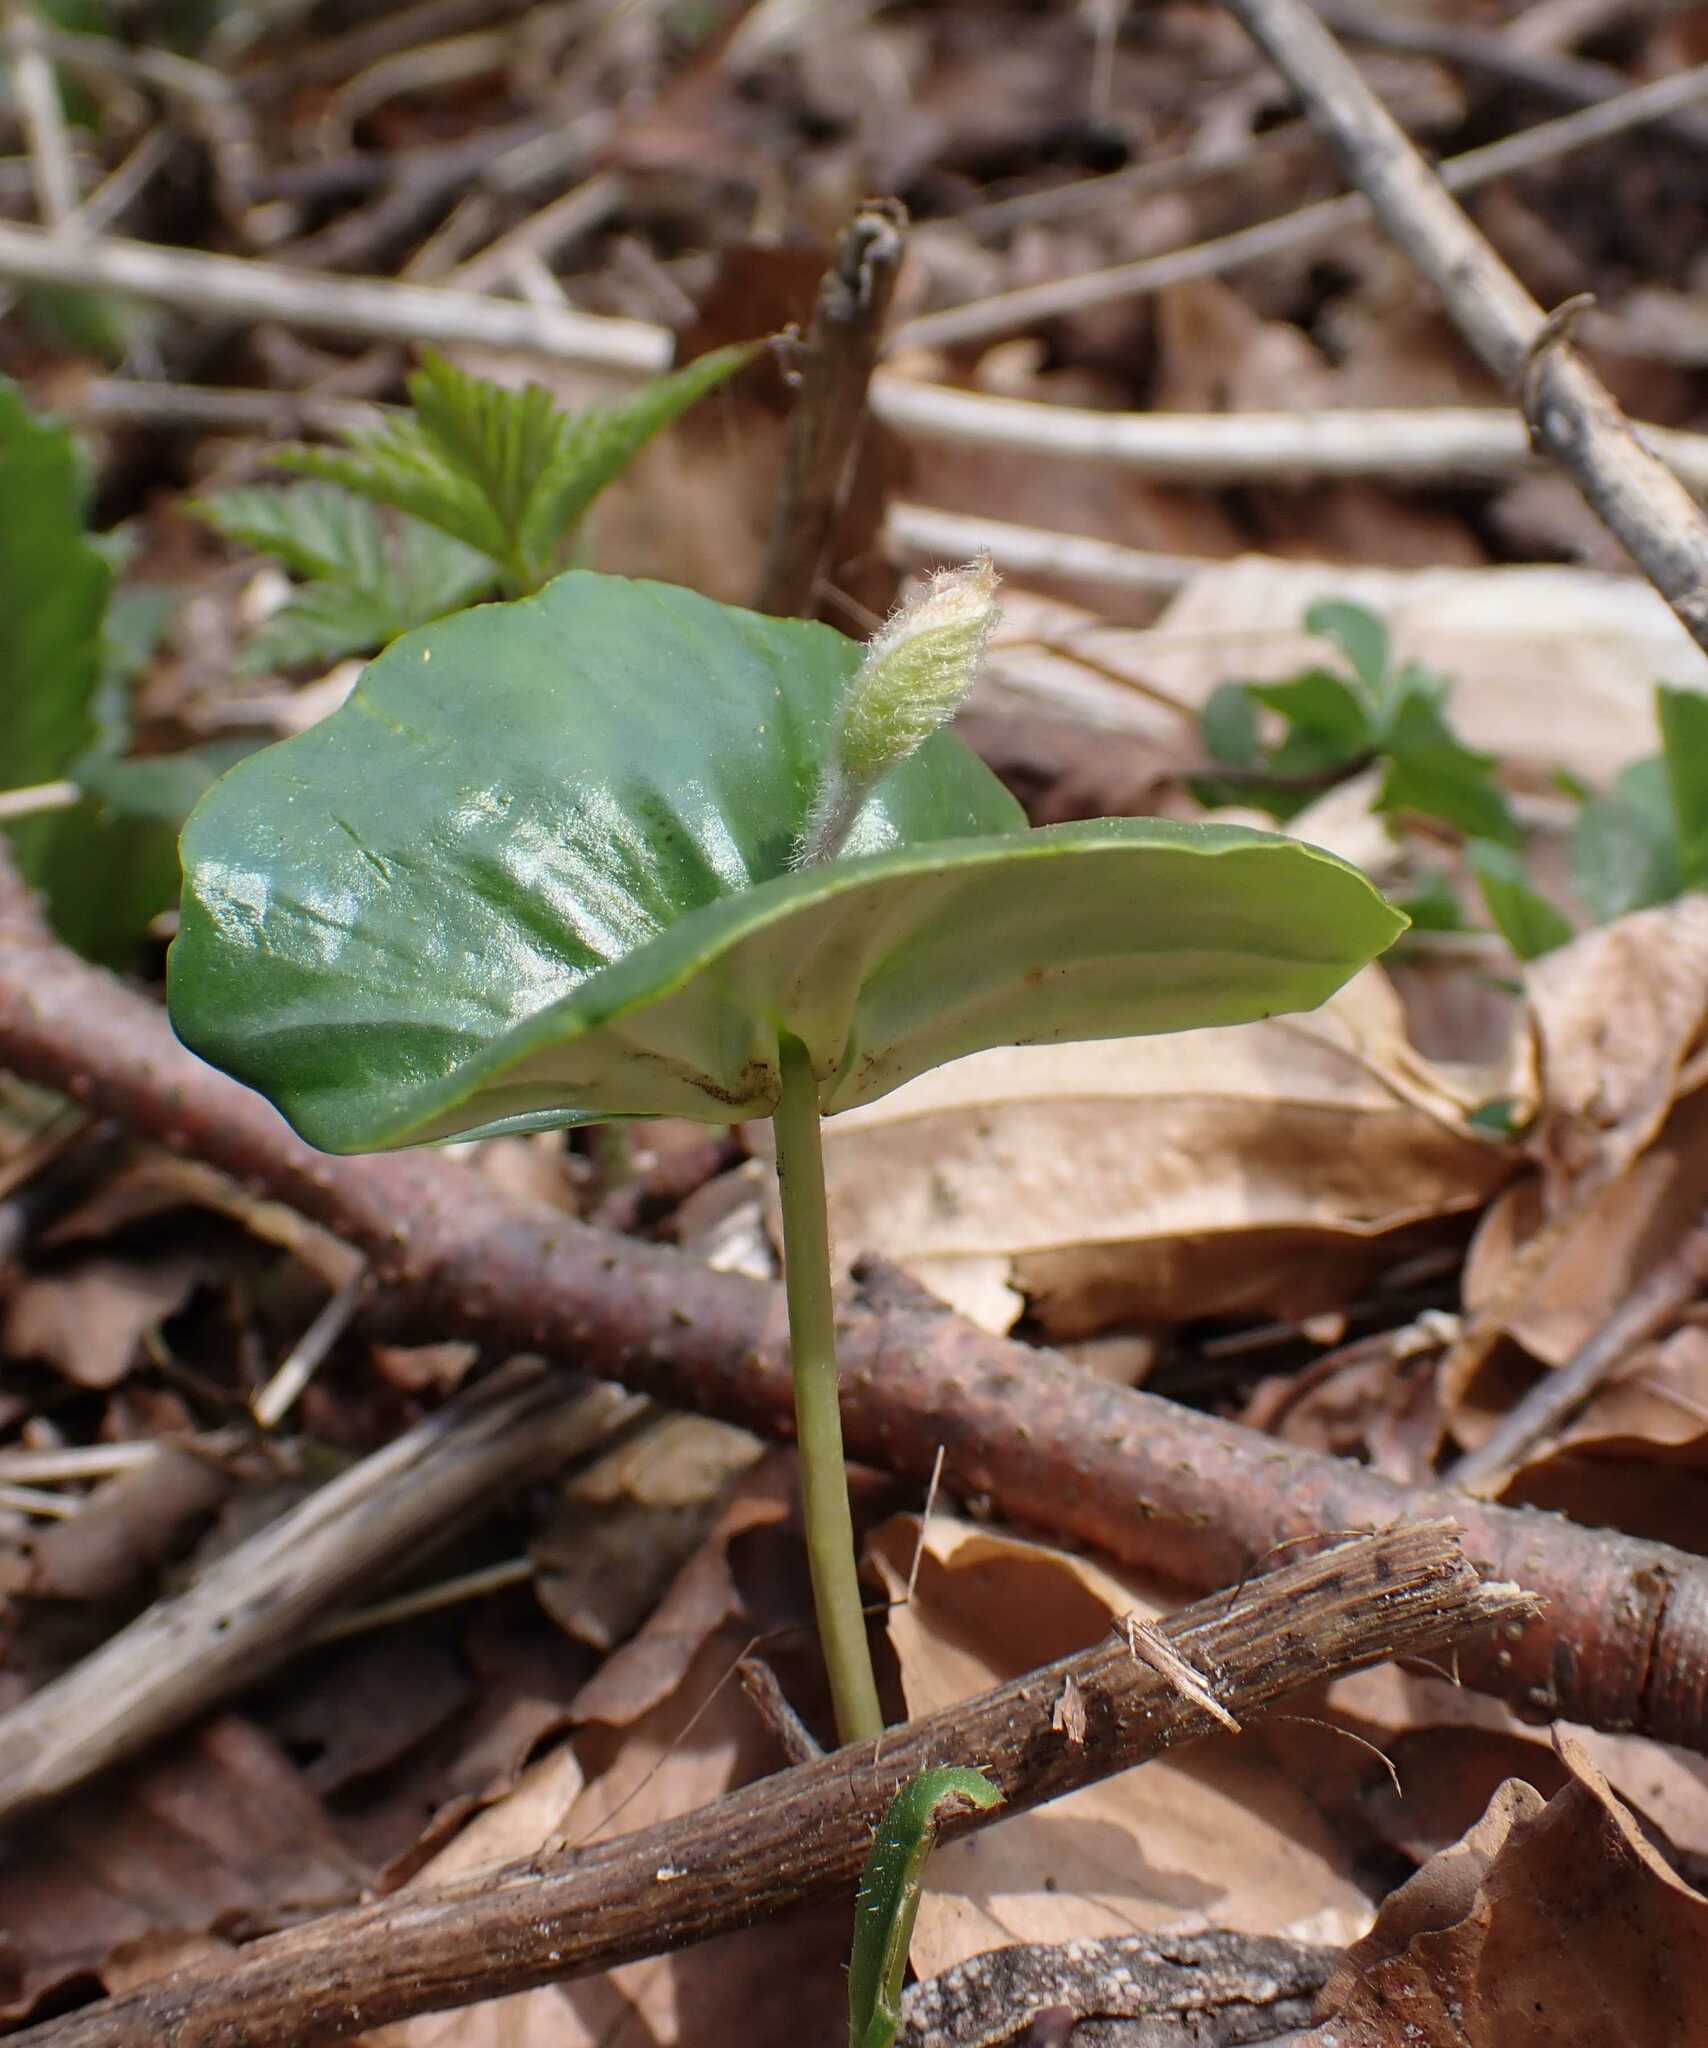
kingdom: Plantae
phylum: Tracheophyta
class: Magnoliopsida
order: Fagales
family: Fagaceae
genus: Fagus
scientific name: Fagus sylvatica
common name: Beech
